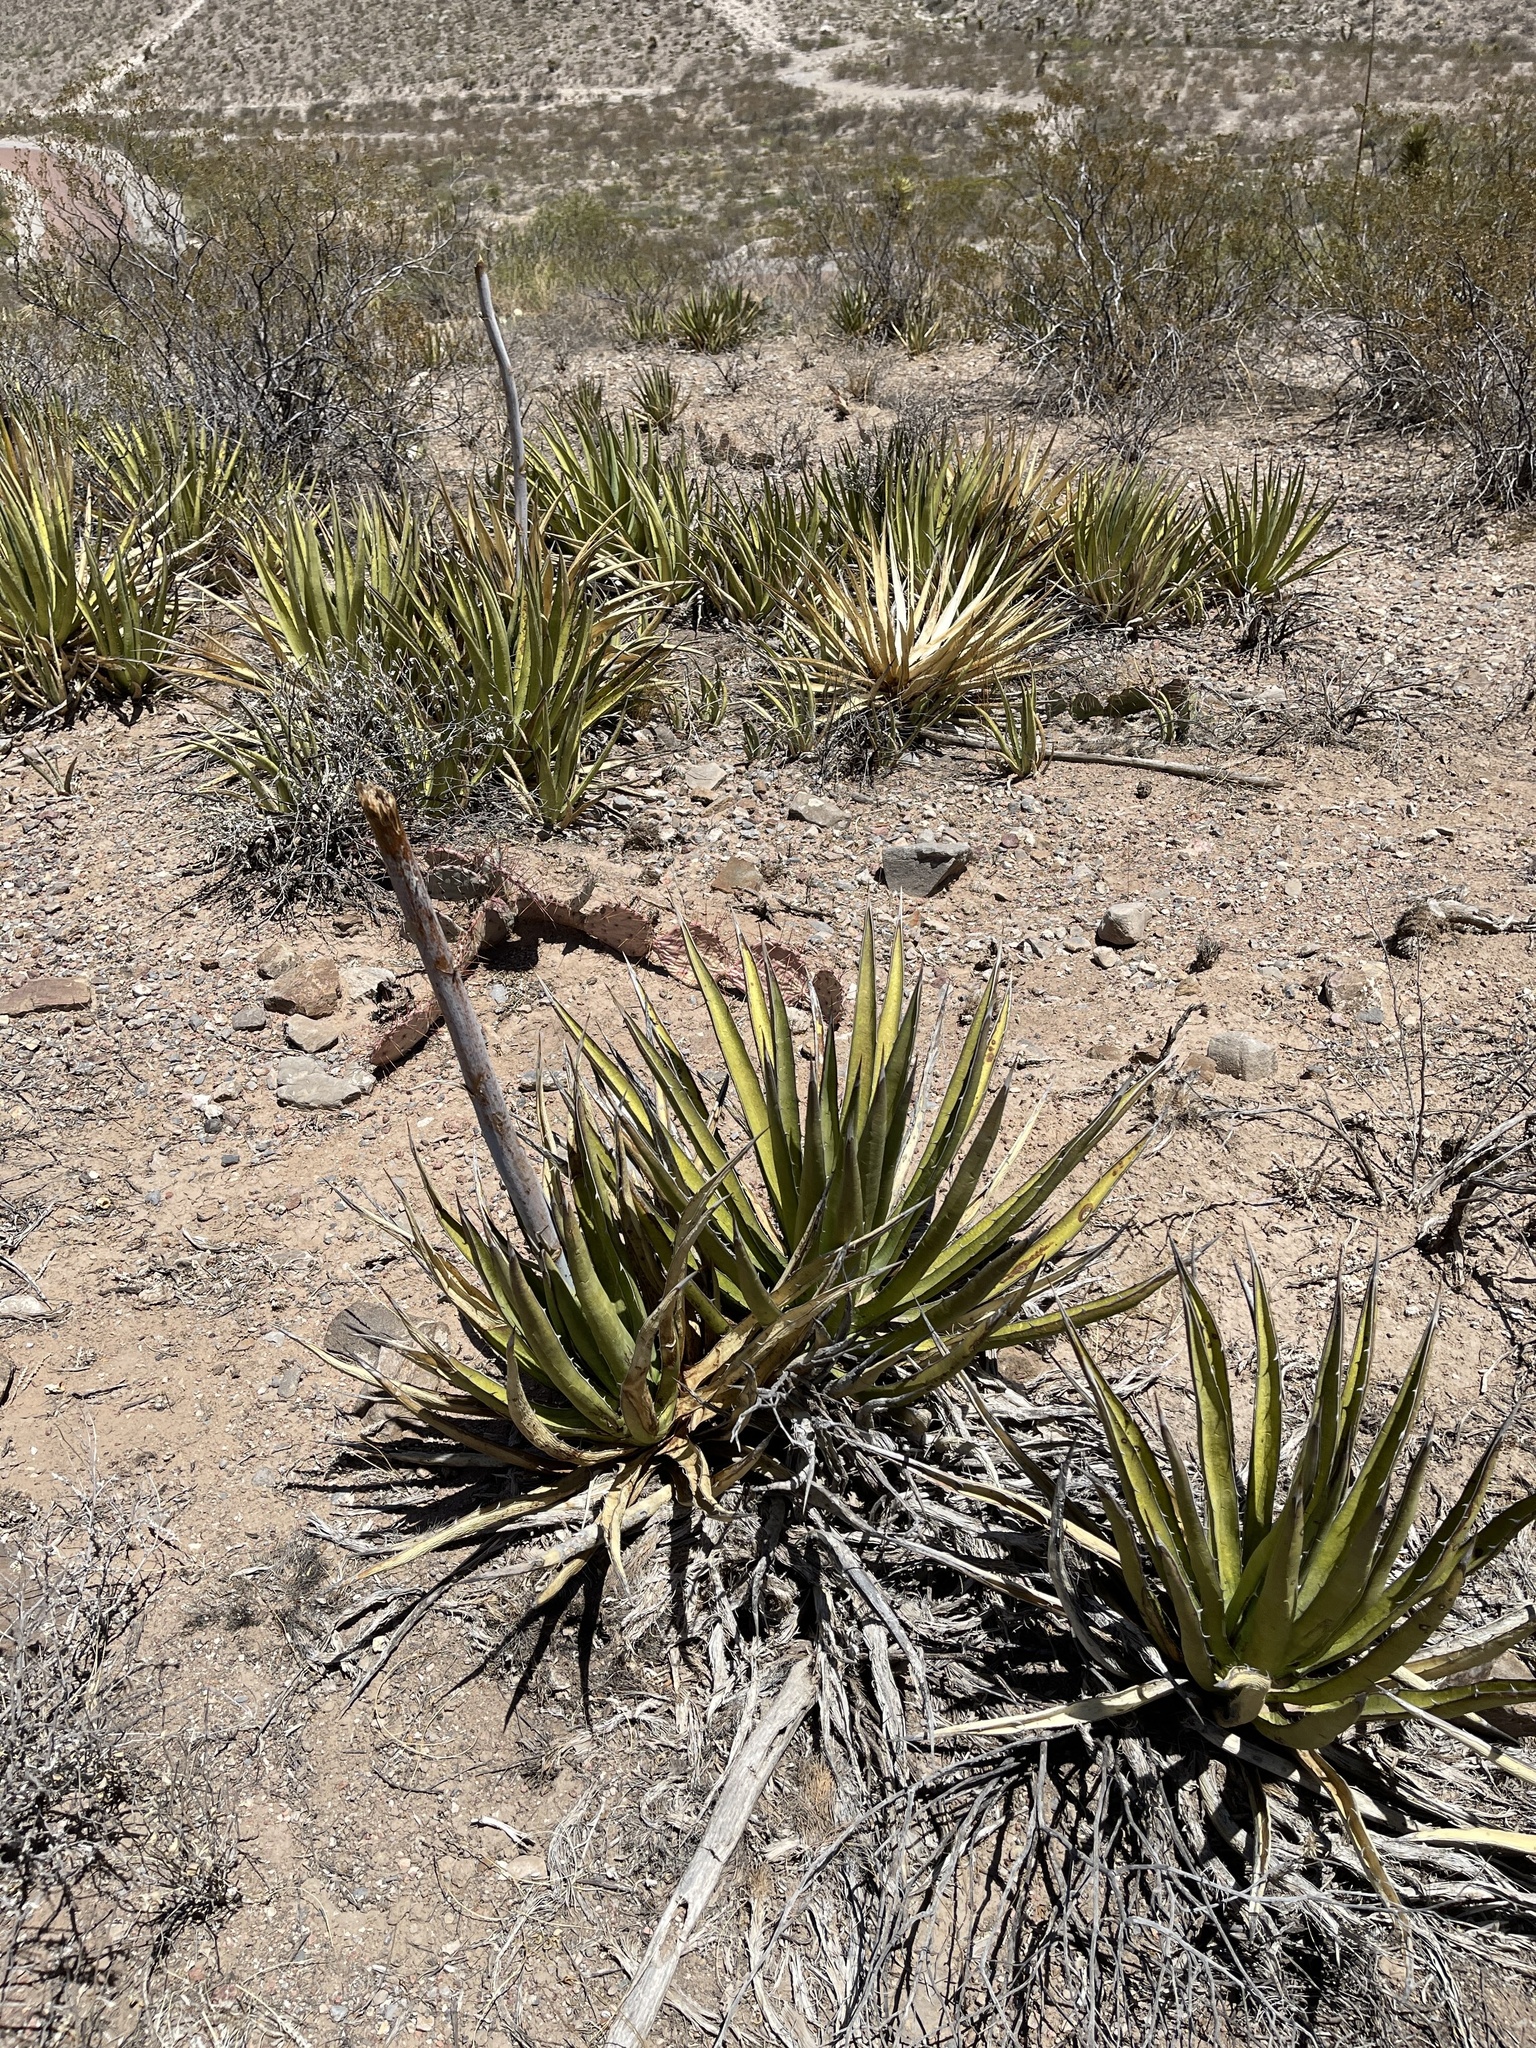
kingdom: Plantae
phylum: Tracheophyta
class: Liliopsida
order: Asparagales
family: Asparagaceae
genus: Agave
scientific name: Agave lechuguilla
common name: Lecheguilla agave
